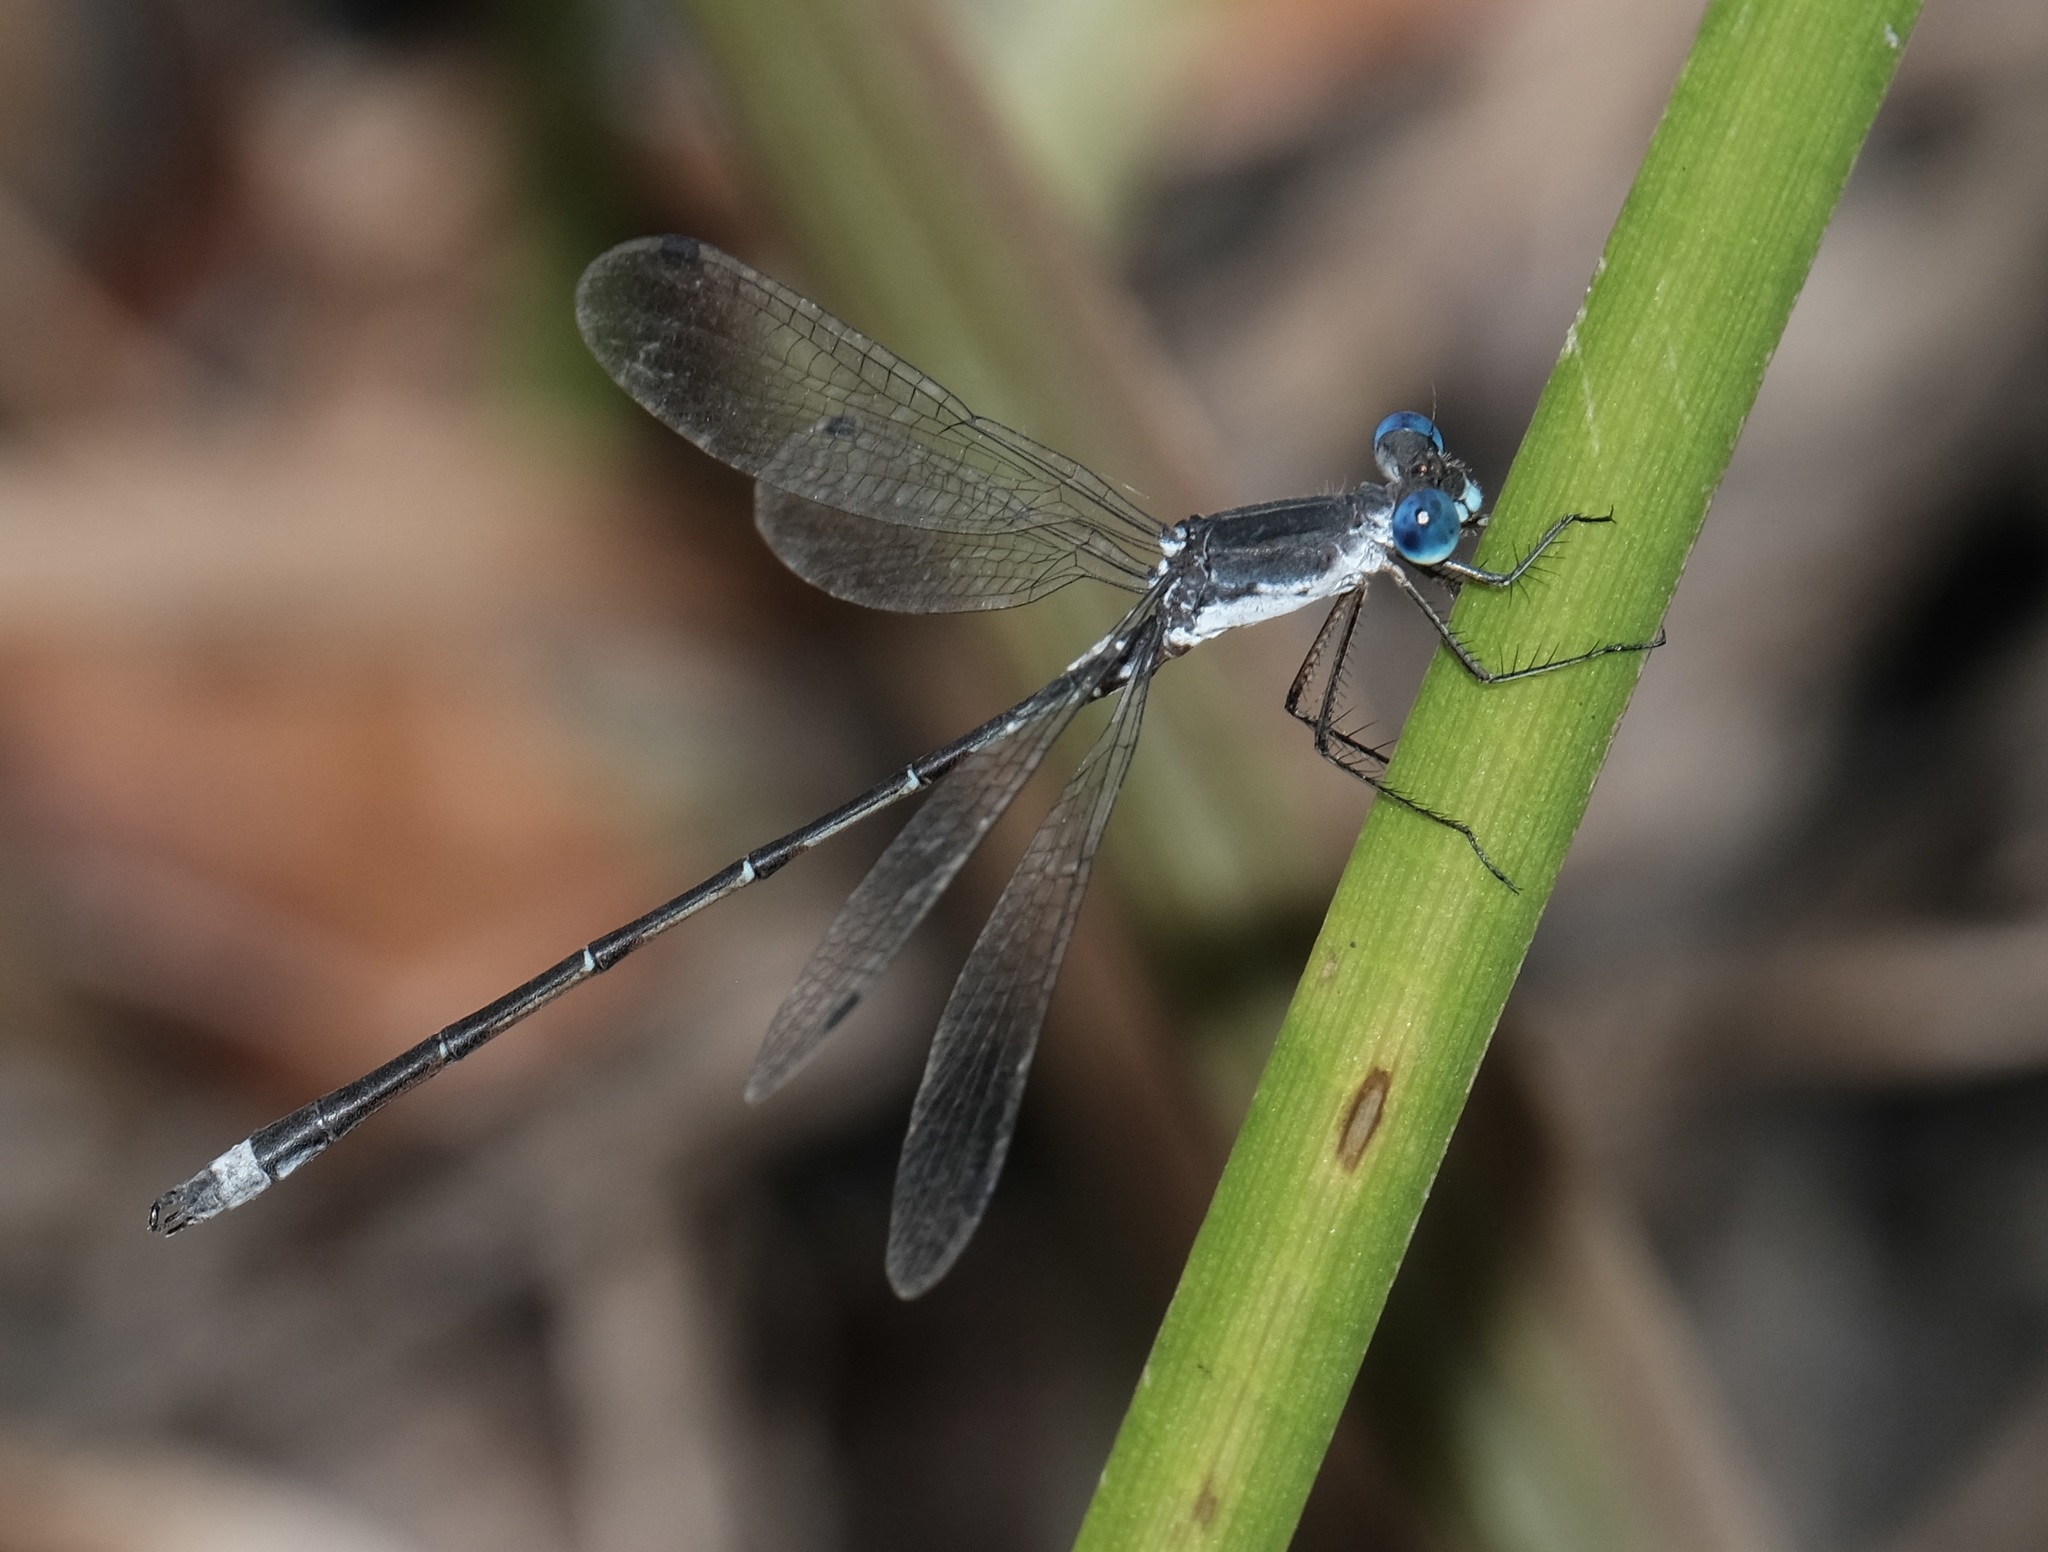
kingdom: Animalia
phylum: Arthropoda
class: Insecta
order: Odonata
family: Lestidae
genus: Lestes
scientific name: Lestes australis
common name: Southern spreadwing
